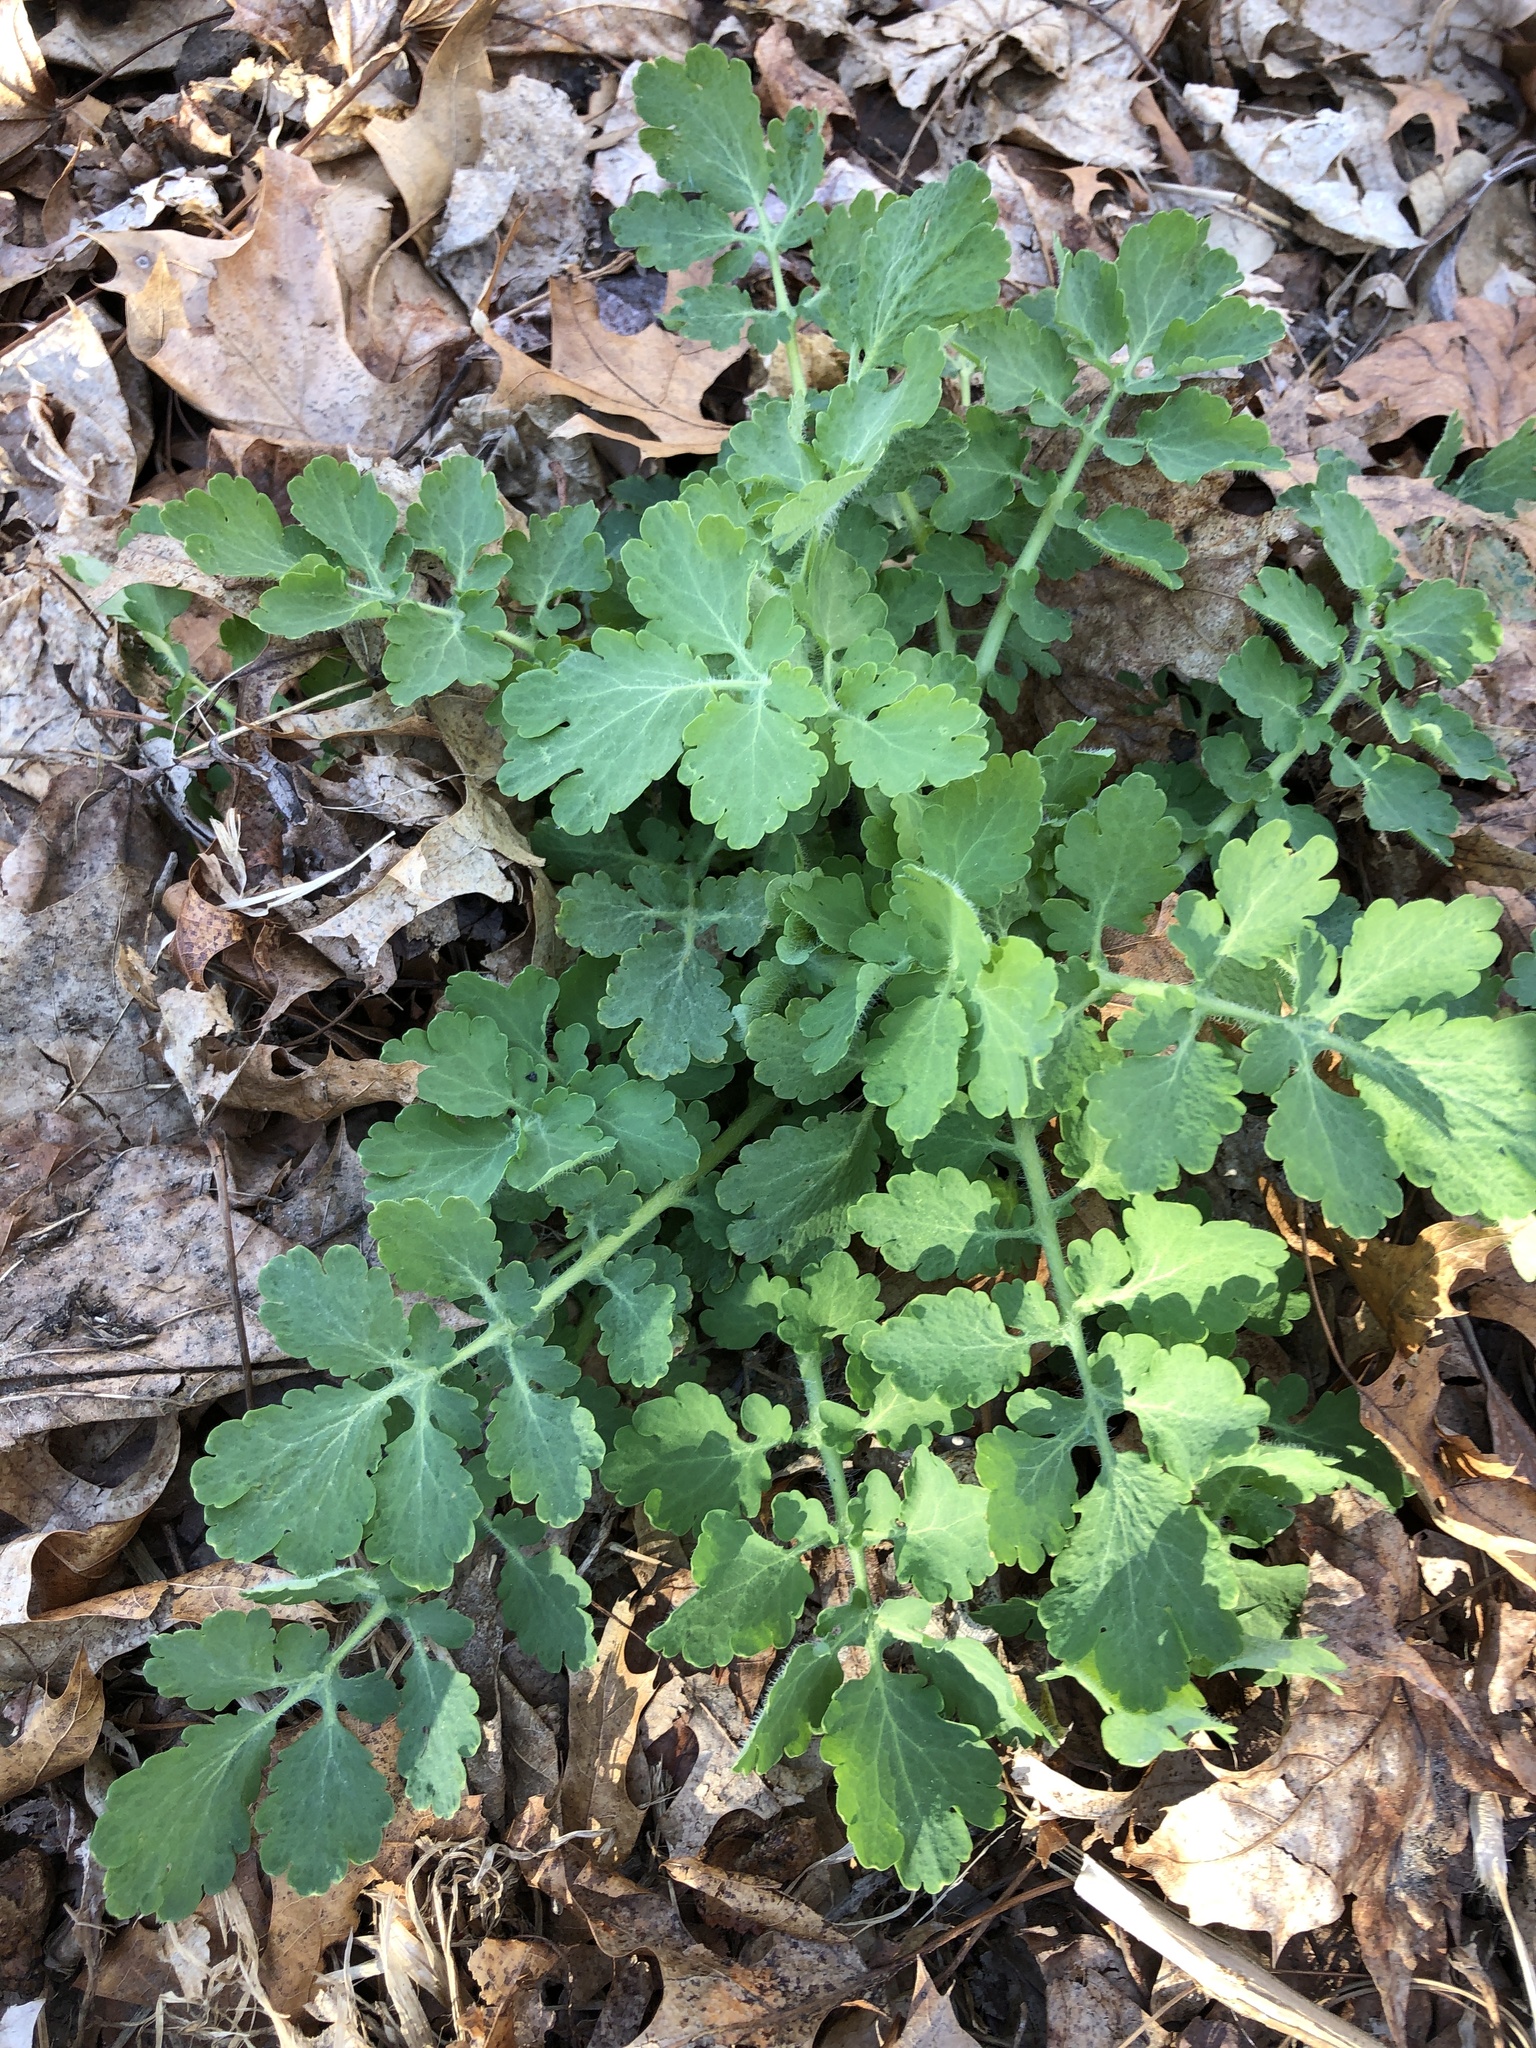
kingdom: Plantae
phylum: Tracheophyta
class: Magnoliopsida
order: Ranunculales
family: Papaveraceae
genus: Chelidonium
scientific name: Chelidonium majus
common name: Greater celandine
